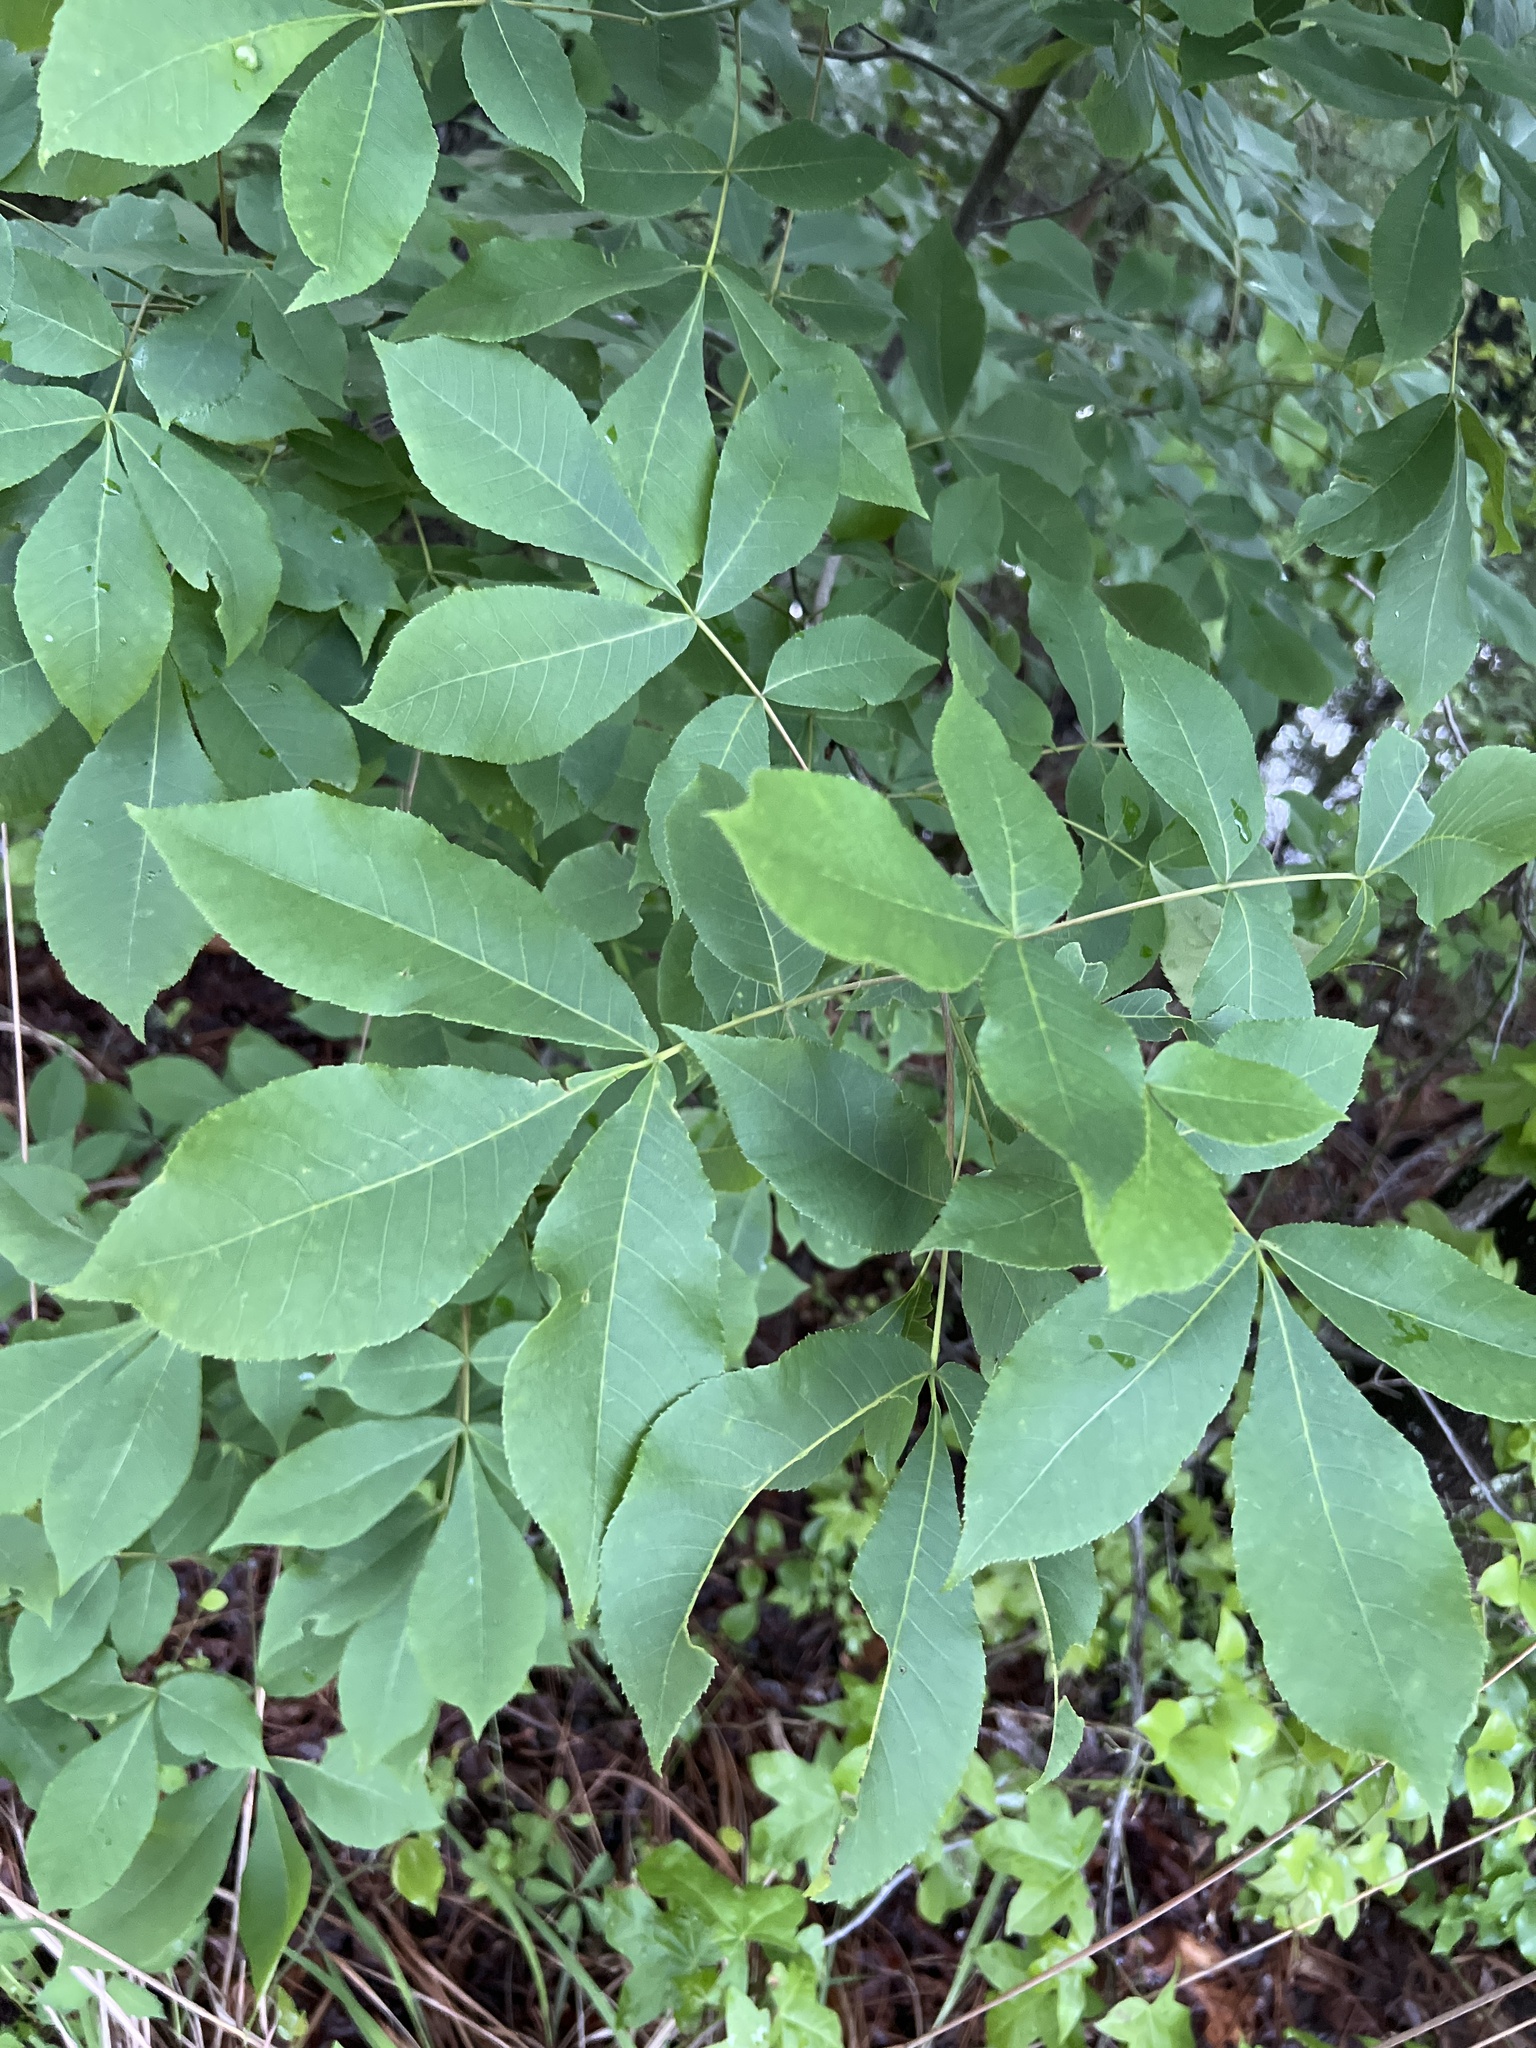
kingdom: Plantae
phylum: Tracheophyta
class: Magnoliopsida
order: Fagales
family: Juglandaceae
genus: Carya
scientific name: Carya glabra
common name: Pignut hickory
